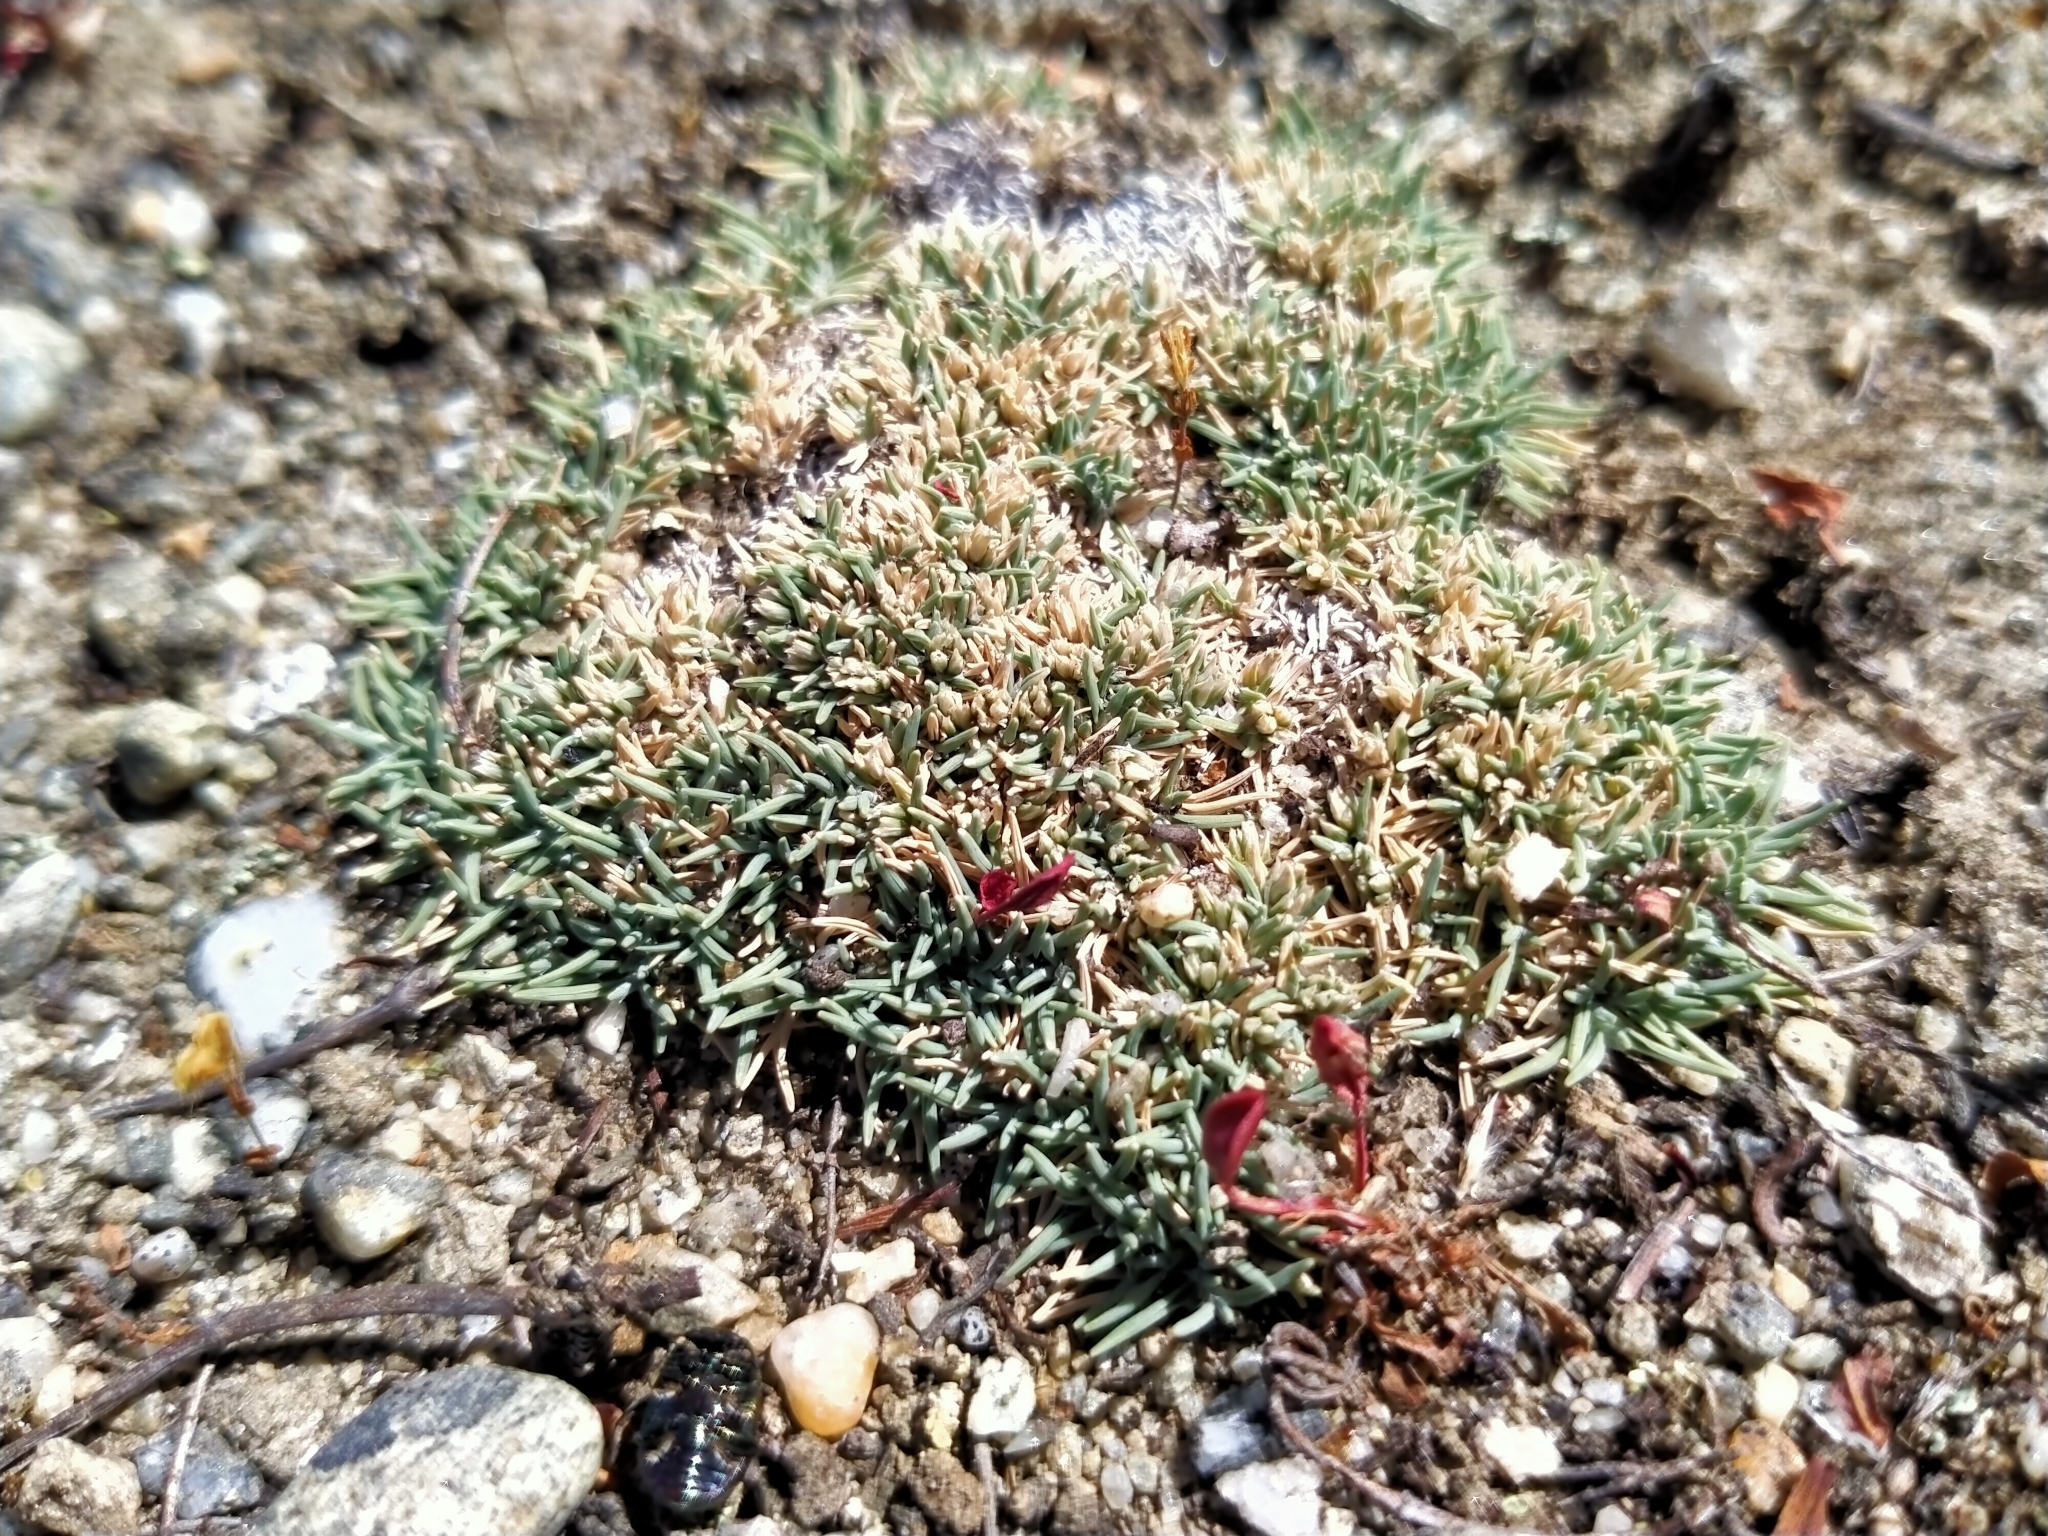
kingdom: Plantae
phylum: Tracheophyta
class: Liliopsida
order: Poales
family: Poaceae
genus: Agrostis
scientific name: Agrostis muscosa
